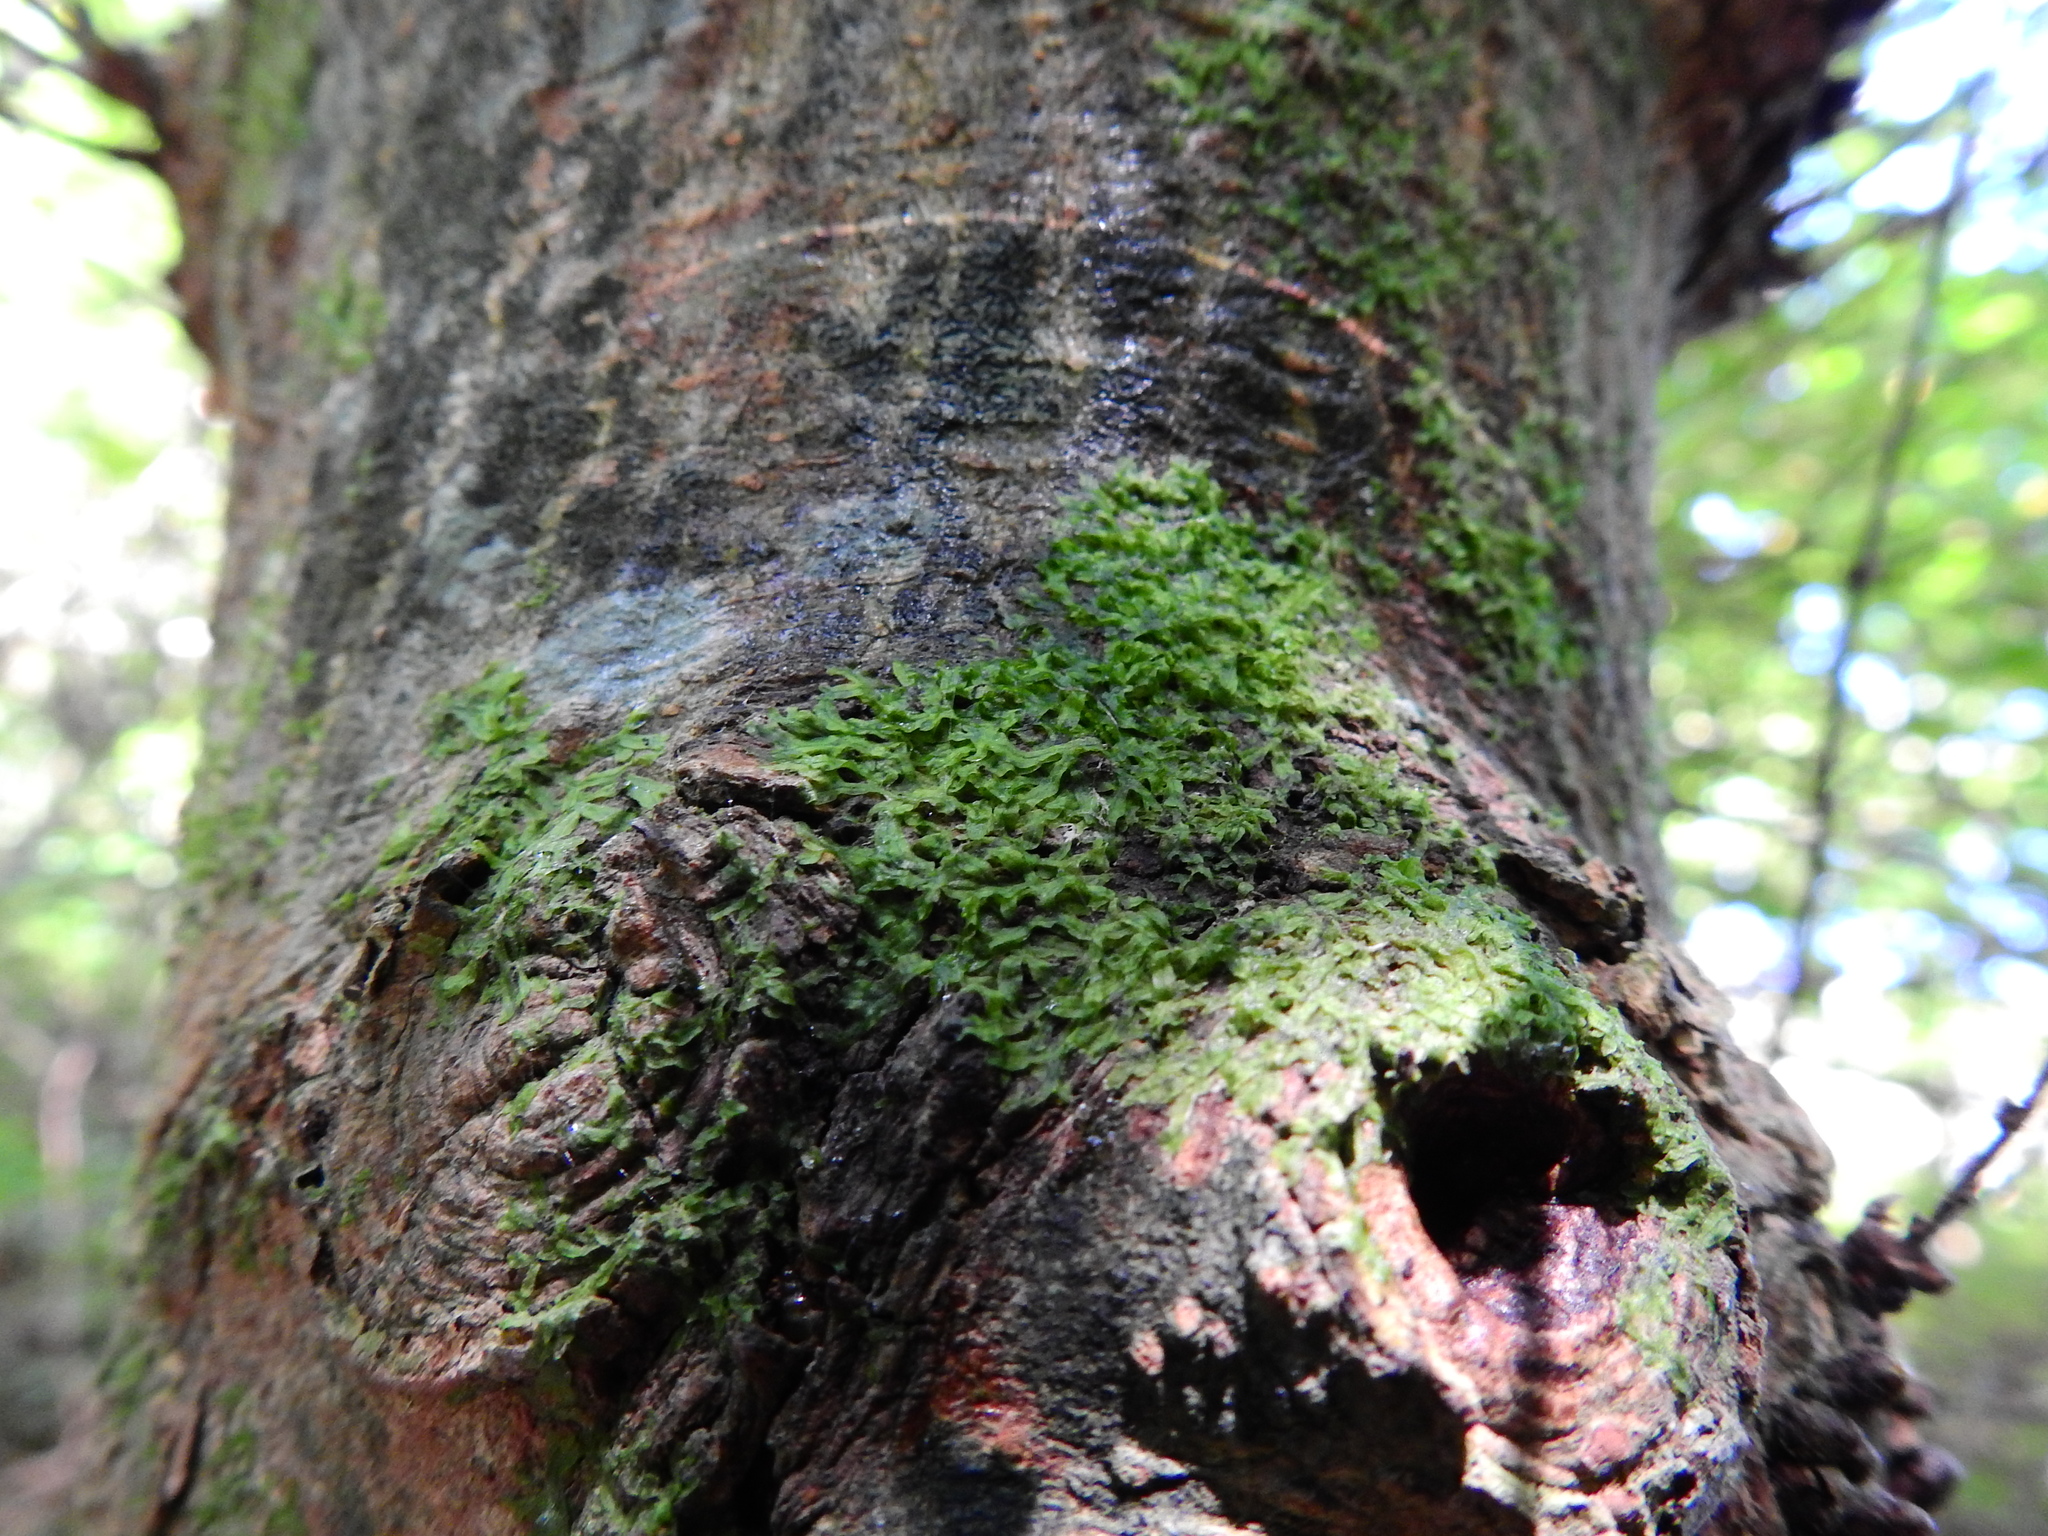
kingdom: Plantae
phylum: Marchantiophyta
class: Jungermanniopsida
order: Metzgeriales
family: Metzgeriaceae
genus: Metzgeria
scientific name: Metzgeria furcata
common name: Forked veilwort
